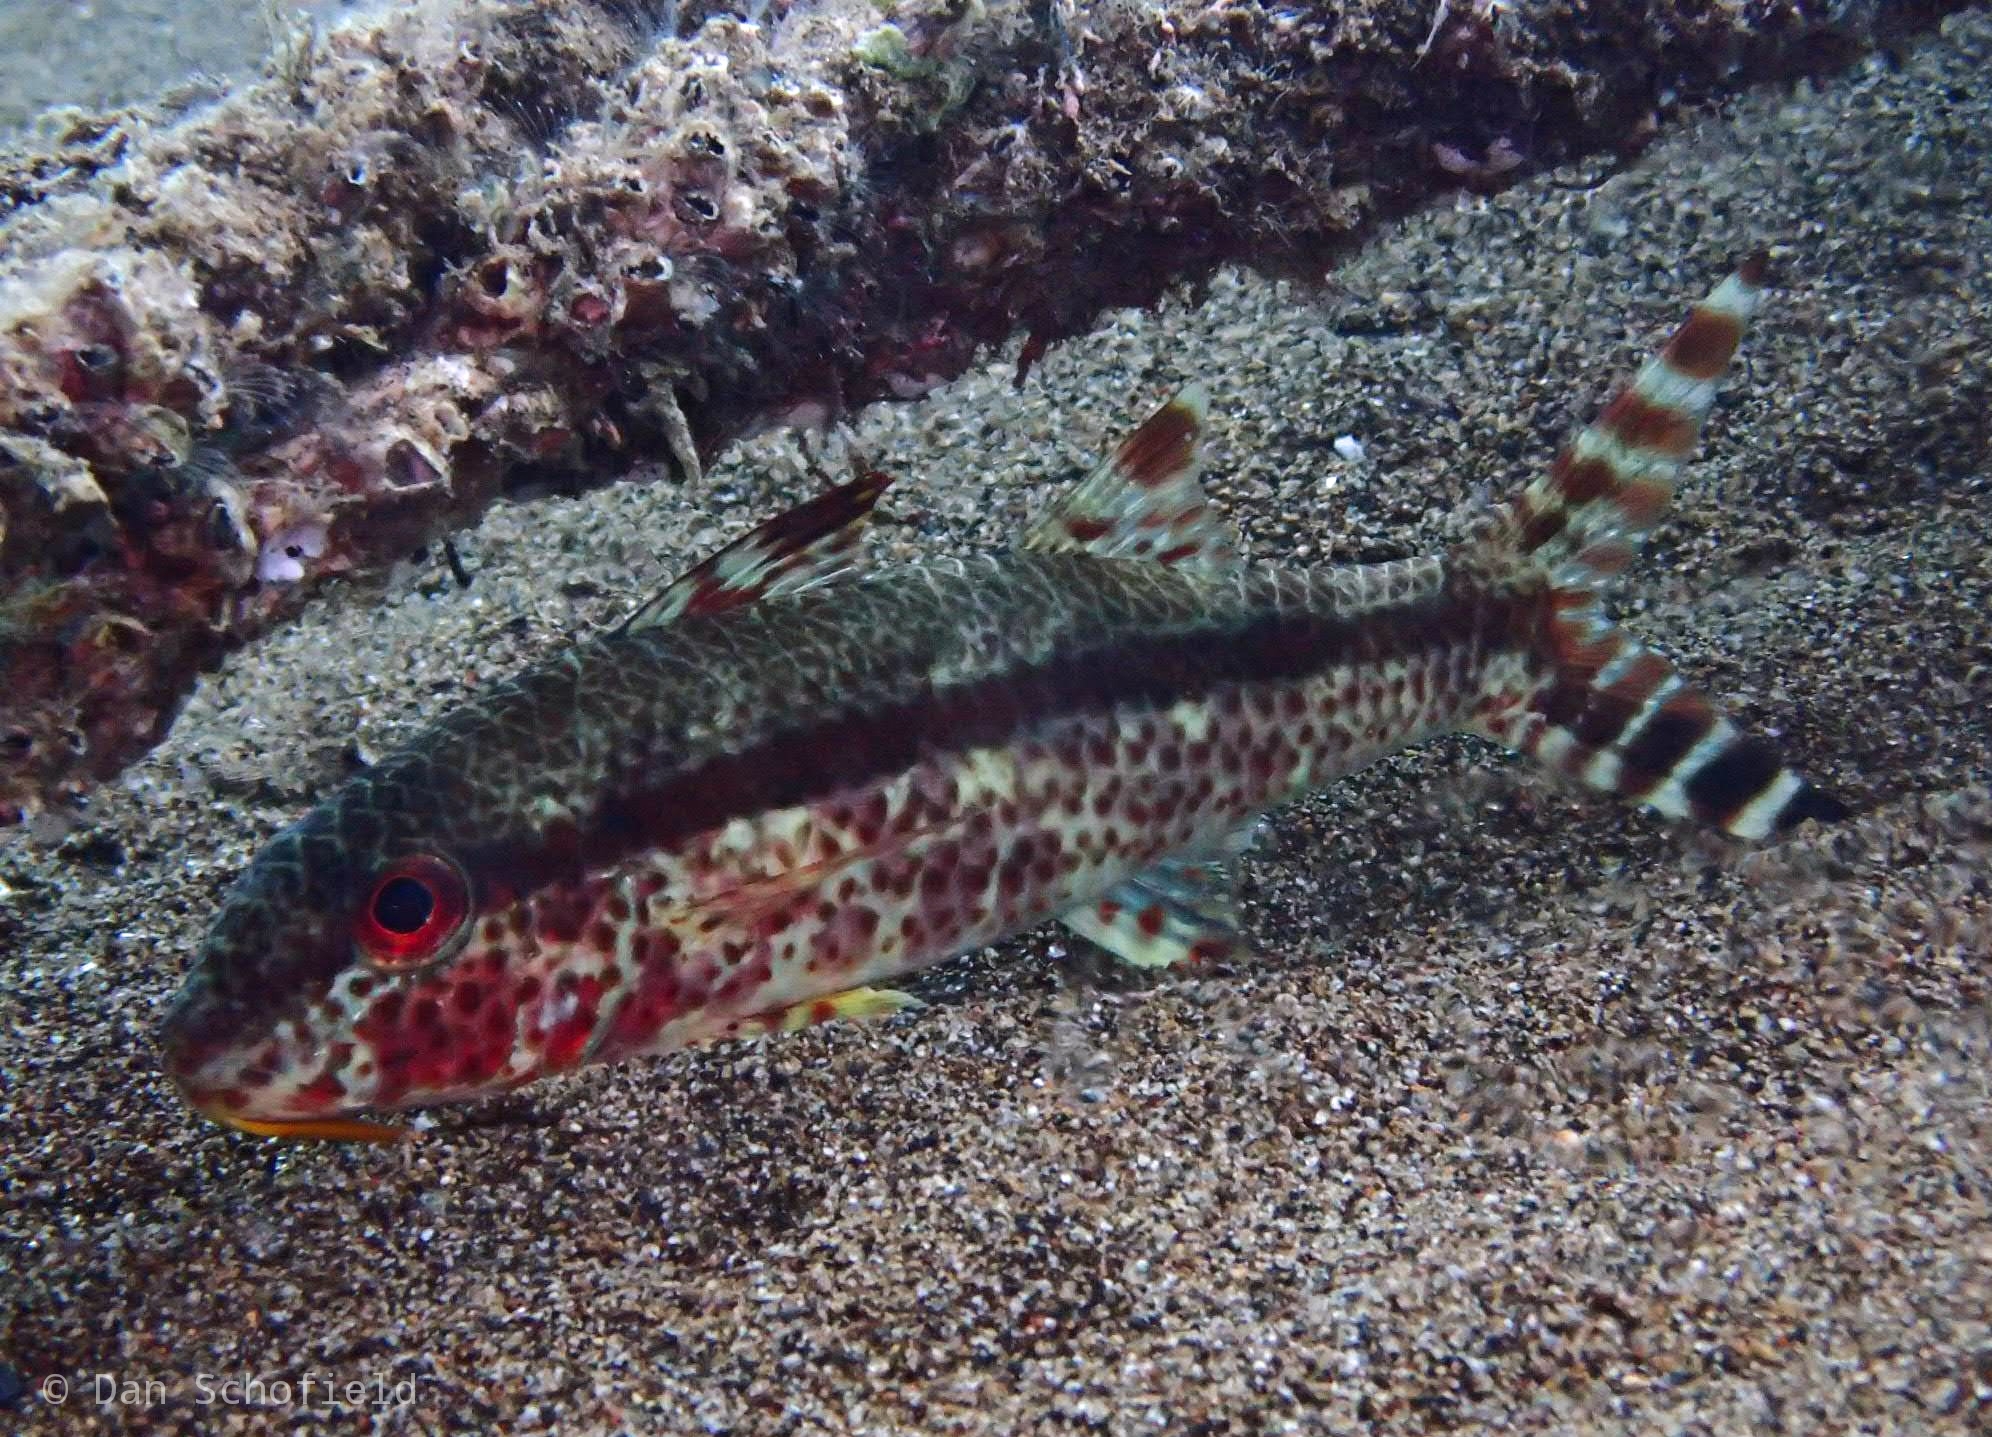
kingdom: Animalia
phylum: Chordata
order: Perciformes
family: Mullidae
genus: Upeneus
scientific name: Upeneus tragula
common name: Freckled goatfish
